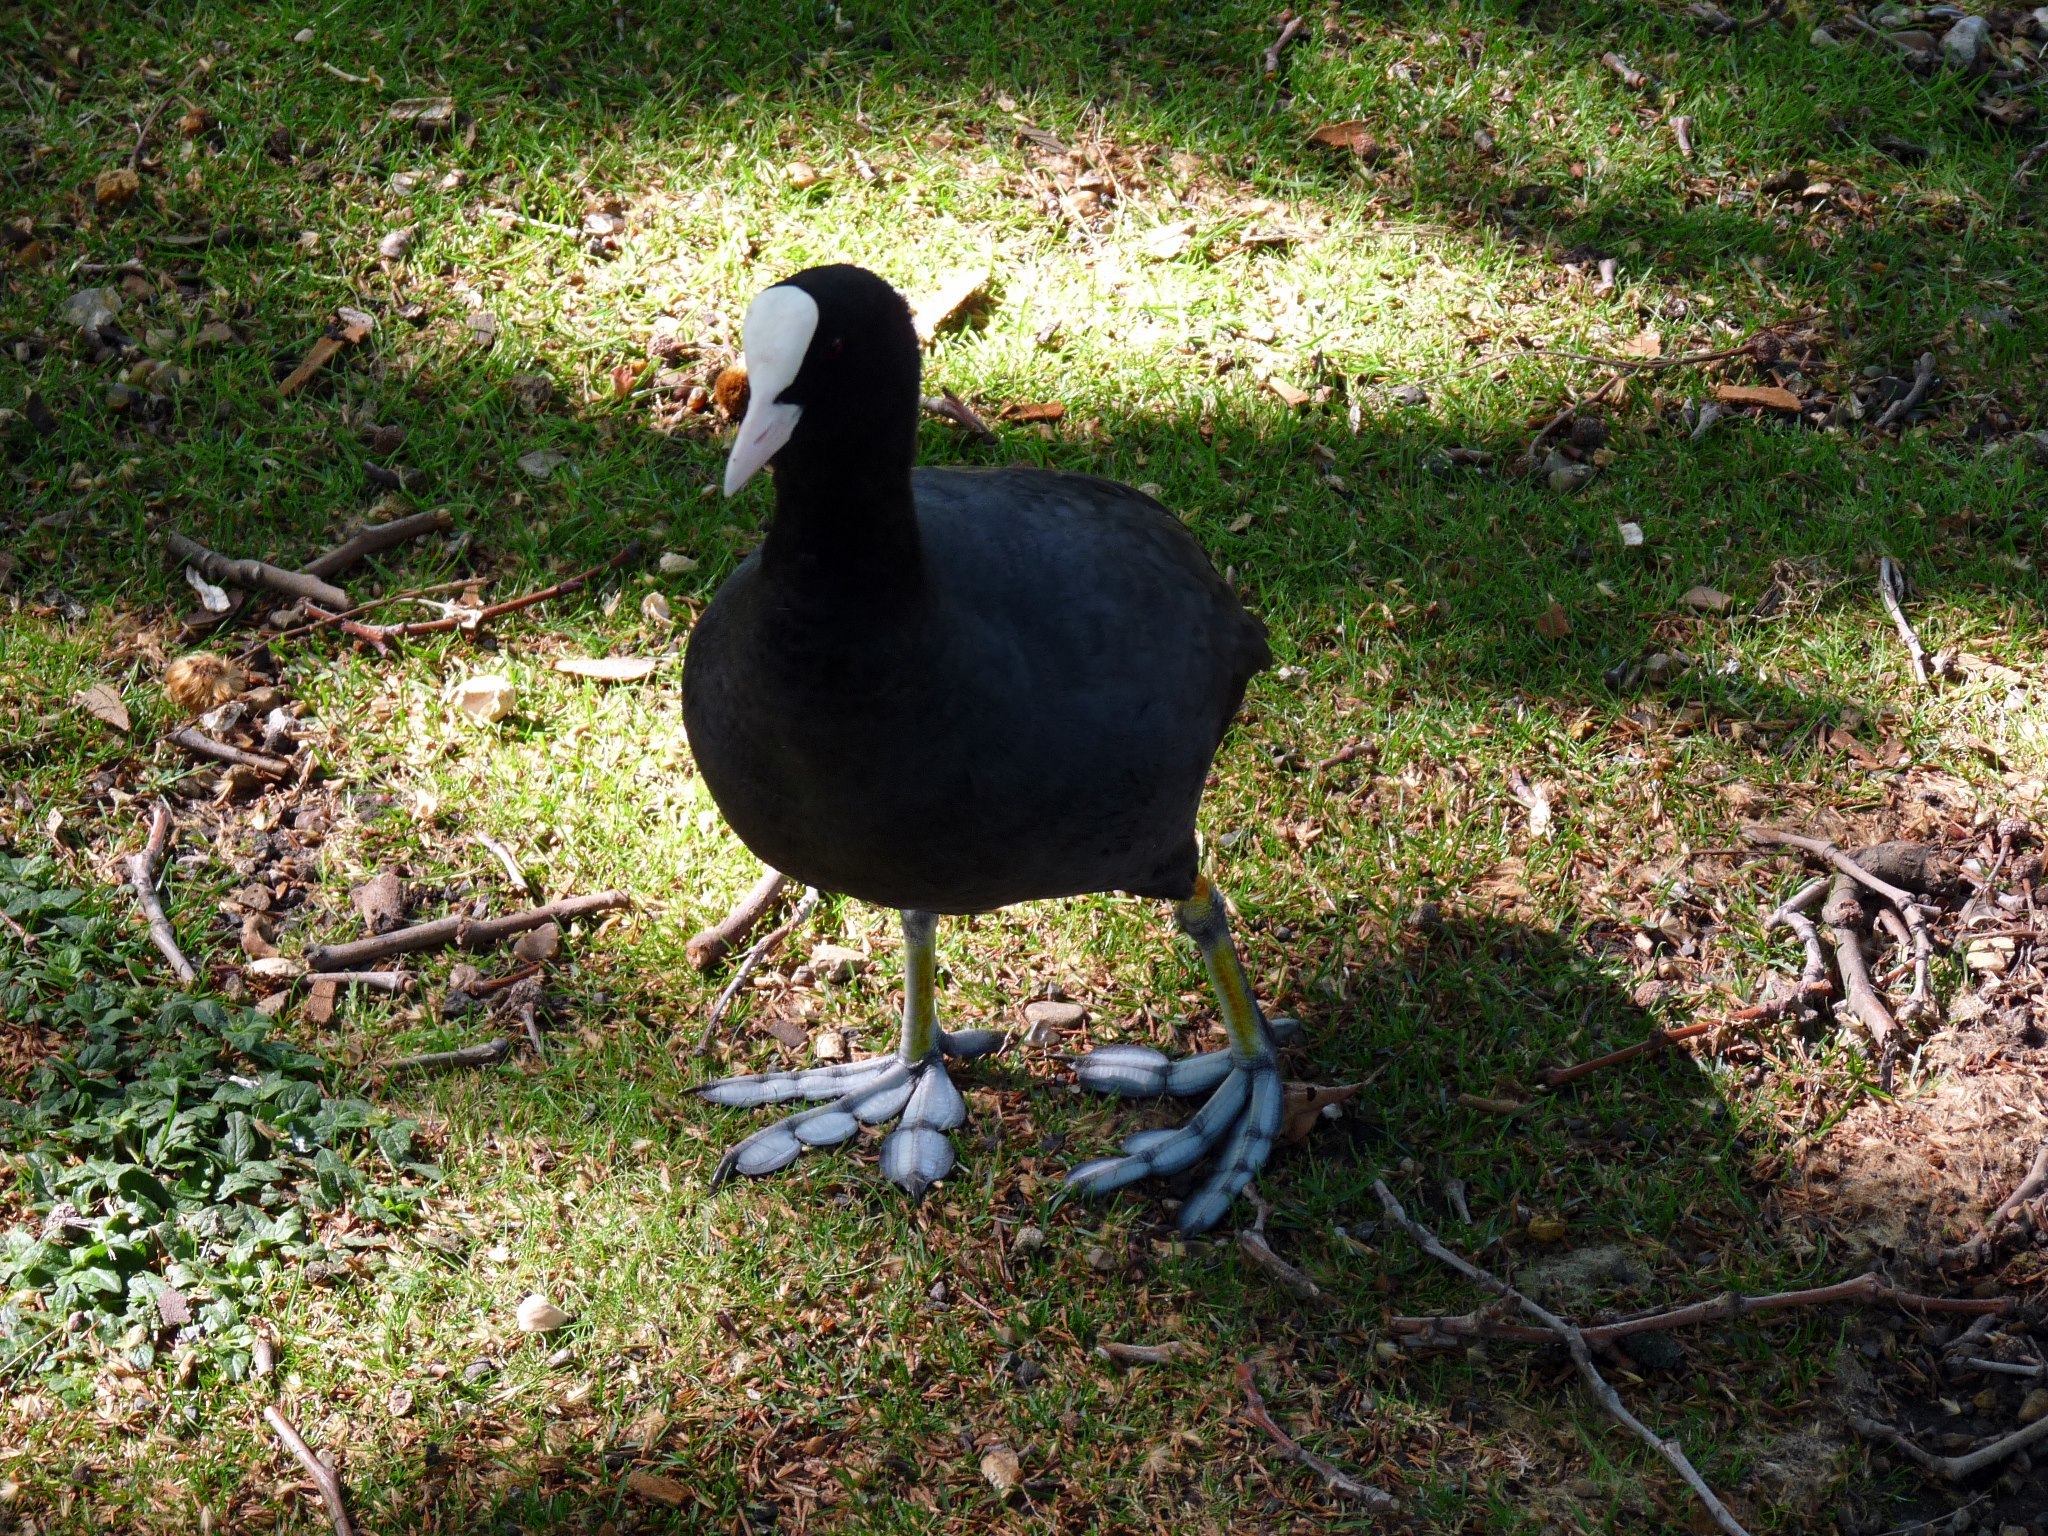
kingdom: Animalia
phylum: Chordata
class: Aves
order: Gruiformes
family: Rallidae
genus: Fulica
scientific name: Fulica atra
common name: Eurasian coot
